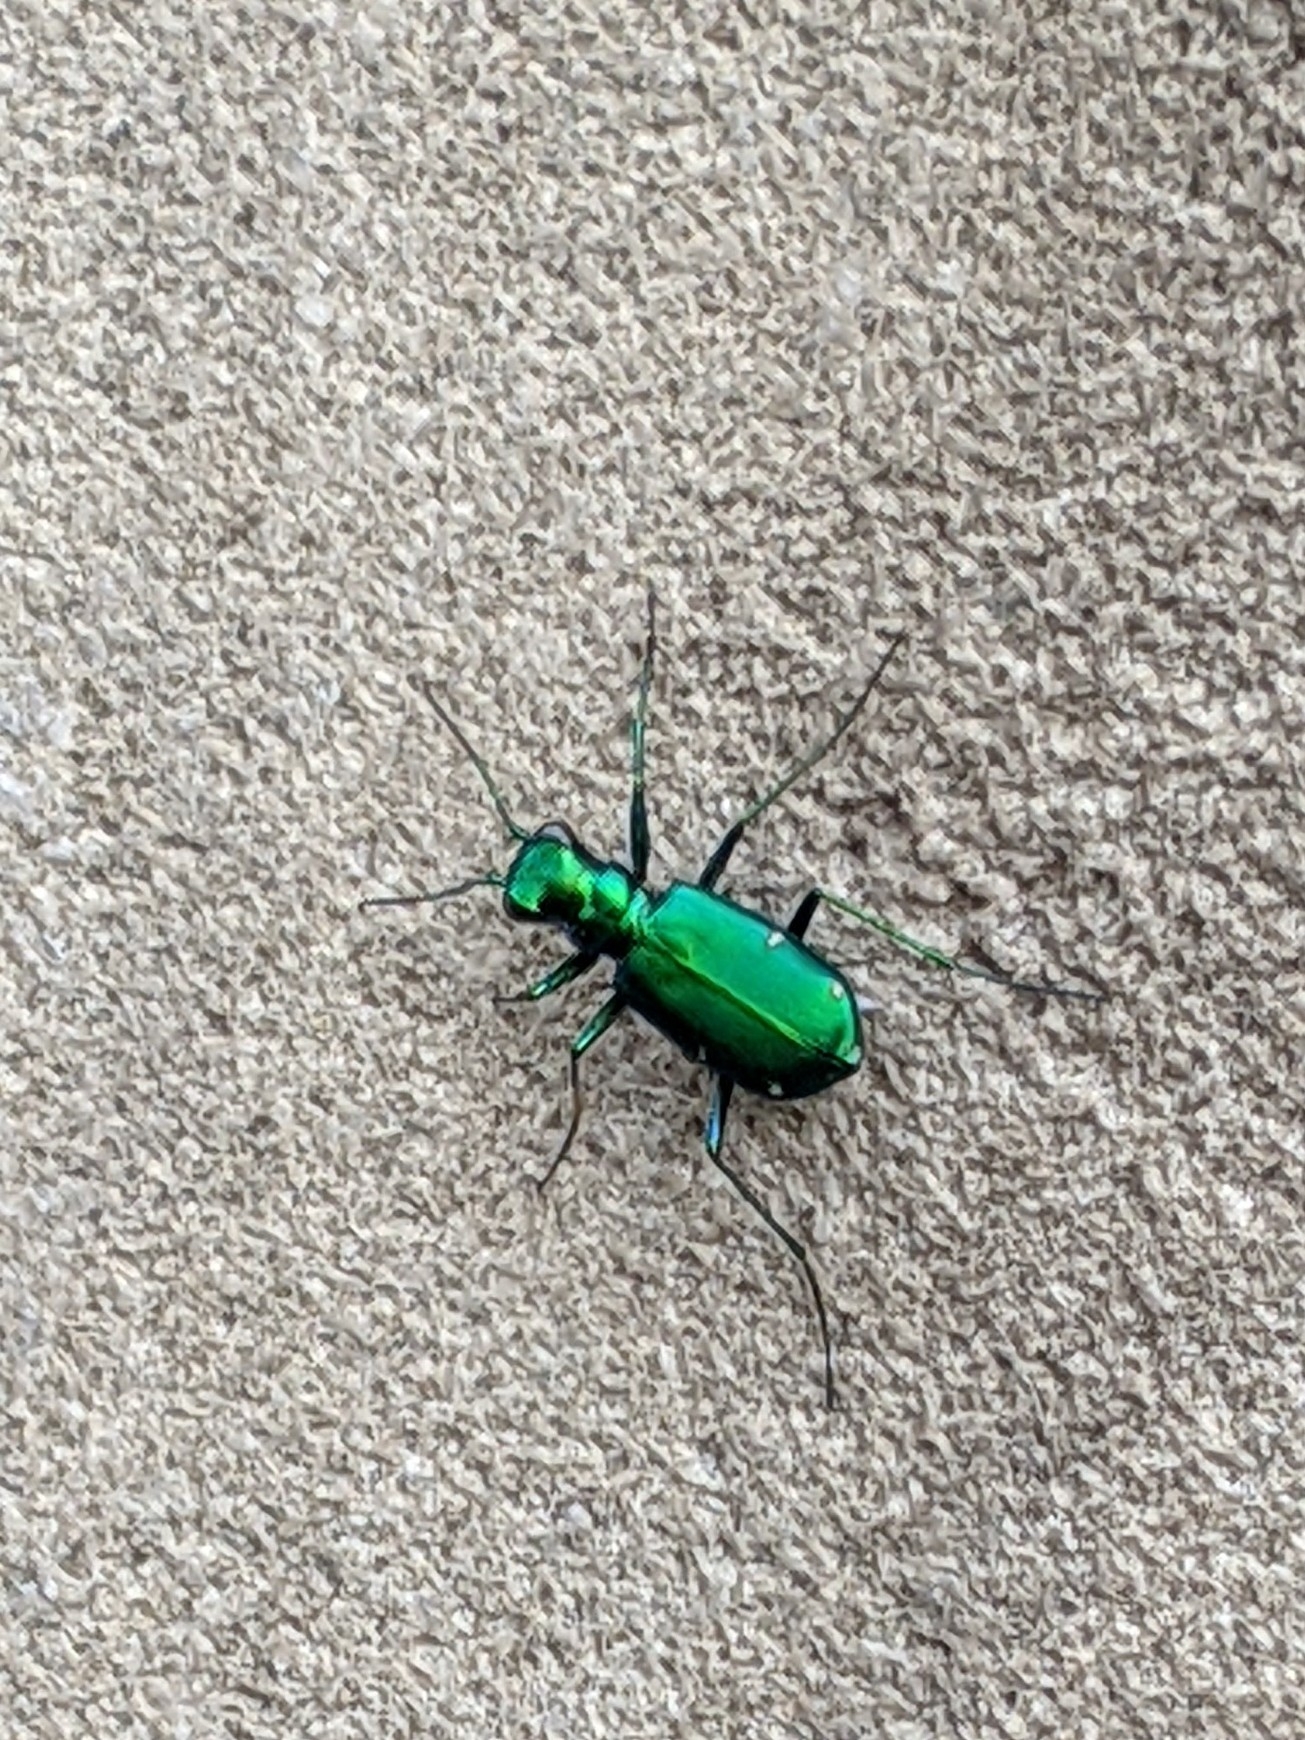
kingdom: Animalia
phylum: Arthropoda
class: Insecta
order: Coleoptera
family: Carabidae
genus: Cicindela
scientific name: Cicindela sexguttata
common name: Six-spotted tiger beetle
